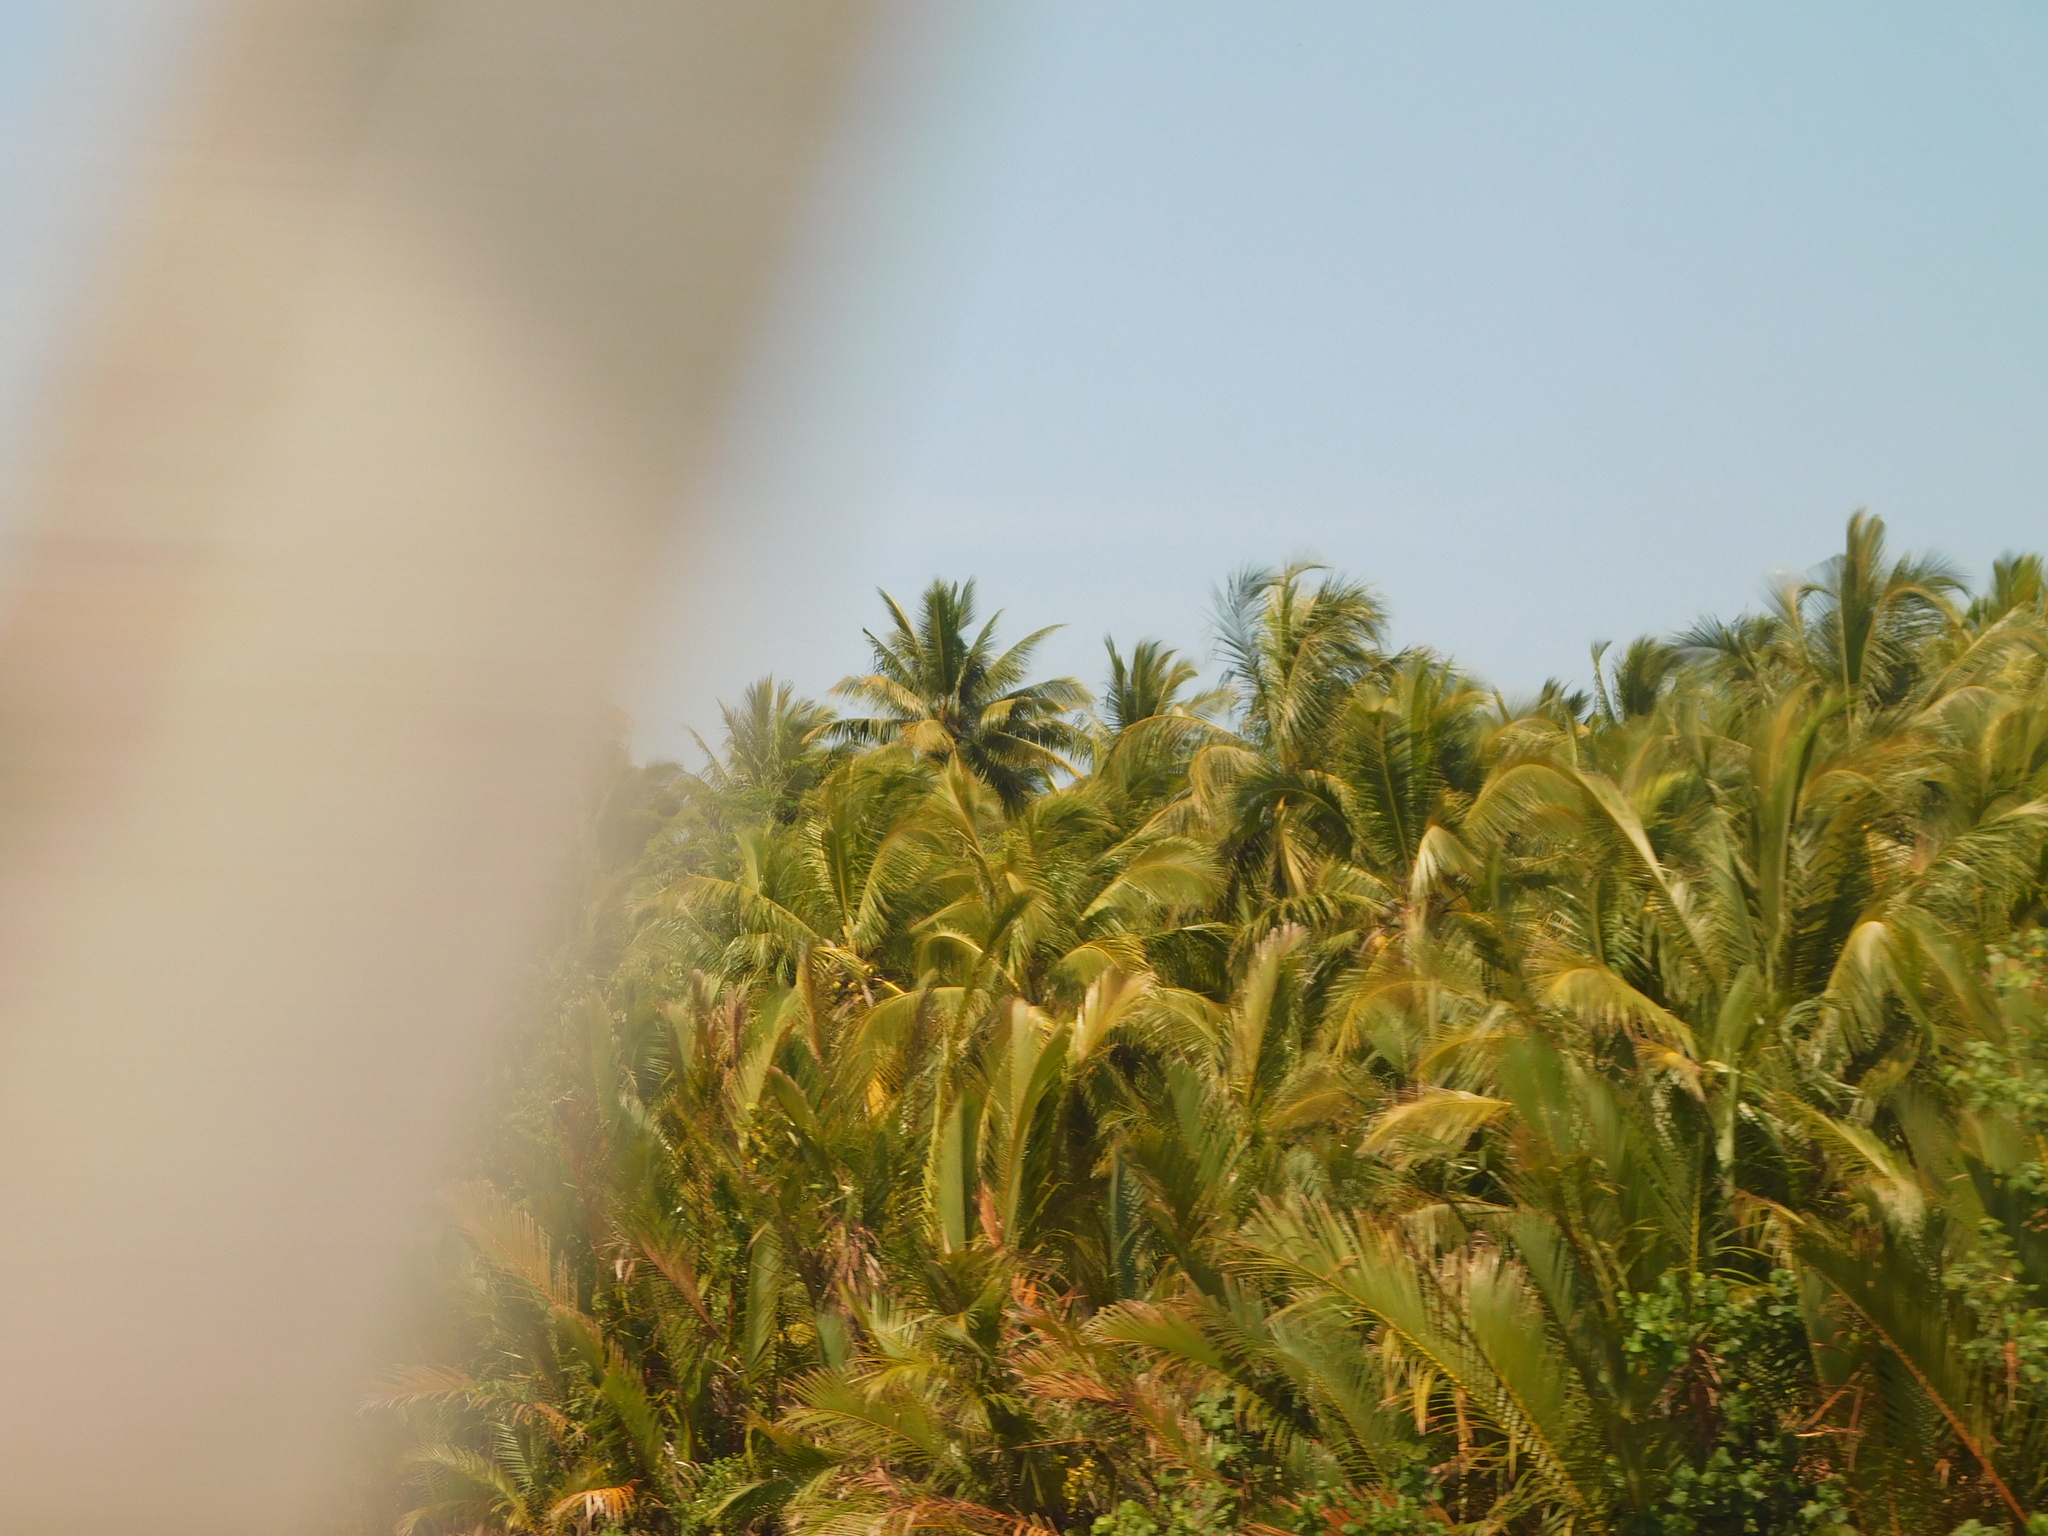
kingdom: Plantae
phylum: Tracheophyta
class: Liliopsida
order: Arecales
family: Arecaceae
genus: Nypa
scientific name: Nypa fruticans
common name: Mangrove palm
